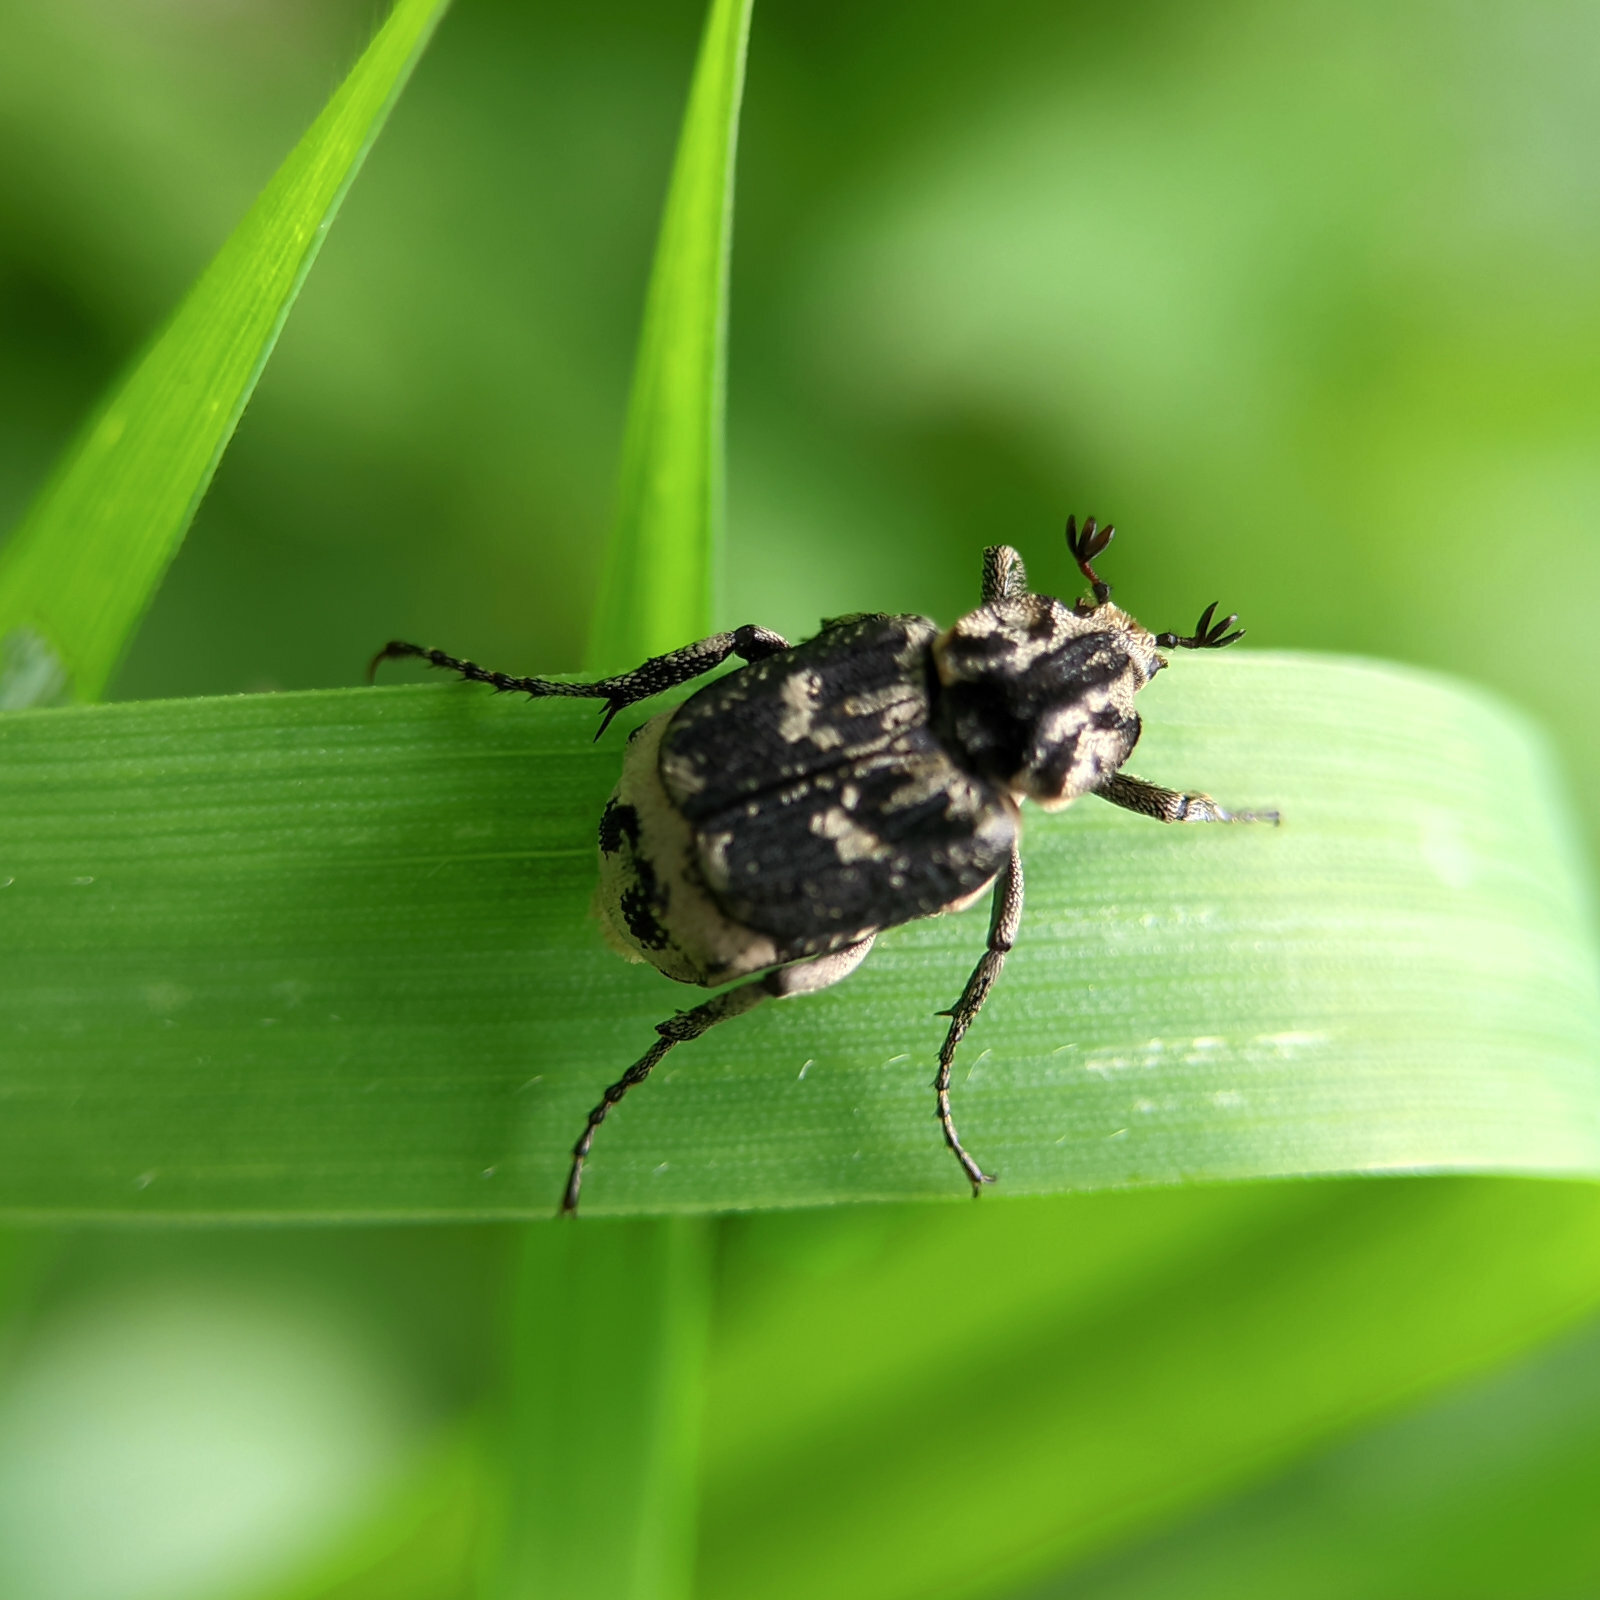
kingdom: Animalia
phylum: Arthropoda
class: Insecta
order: Coleoptera
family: Scarabaeidae
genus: Valgus
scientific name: Valgus hemipterus
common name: Bug flower chafer
